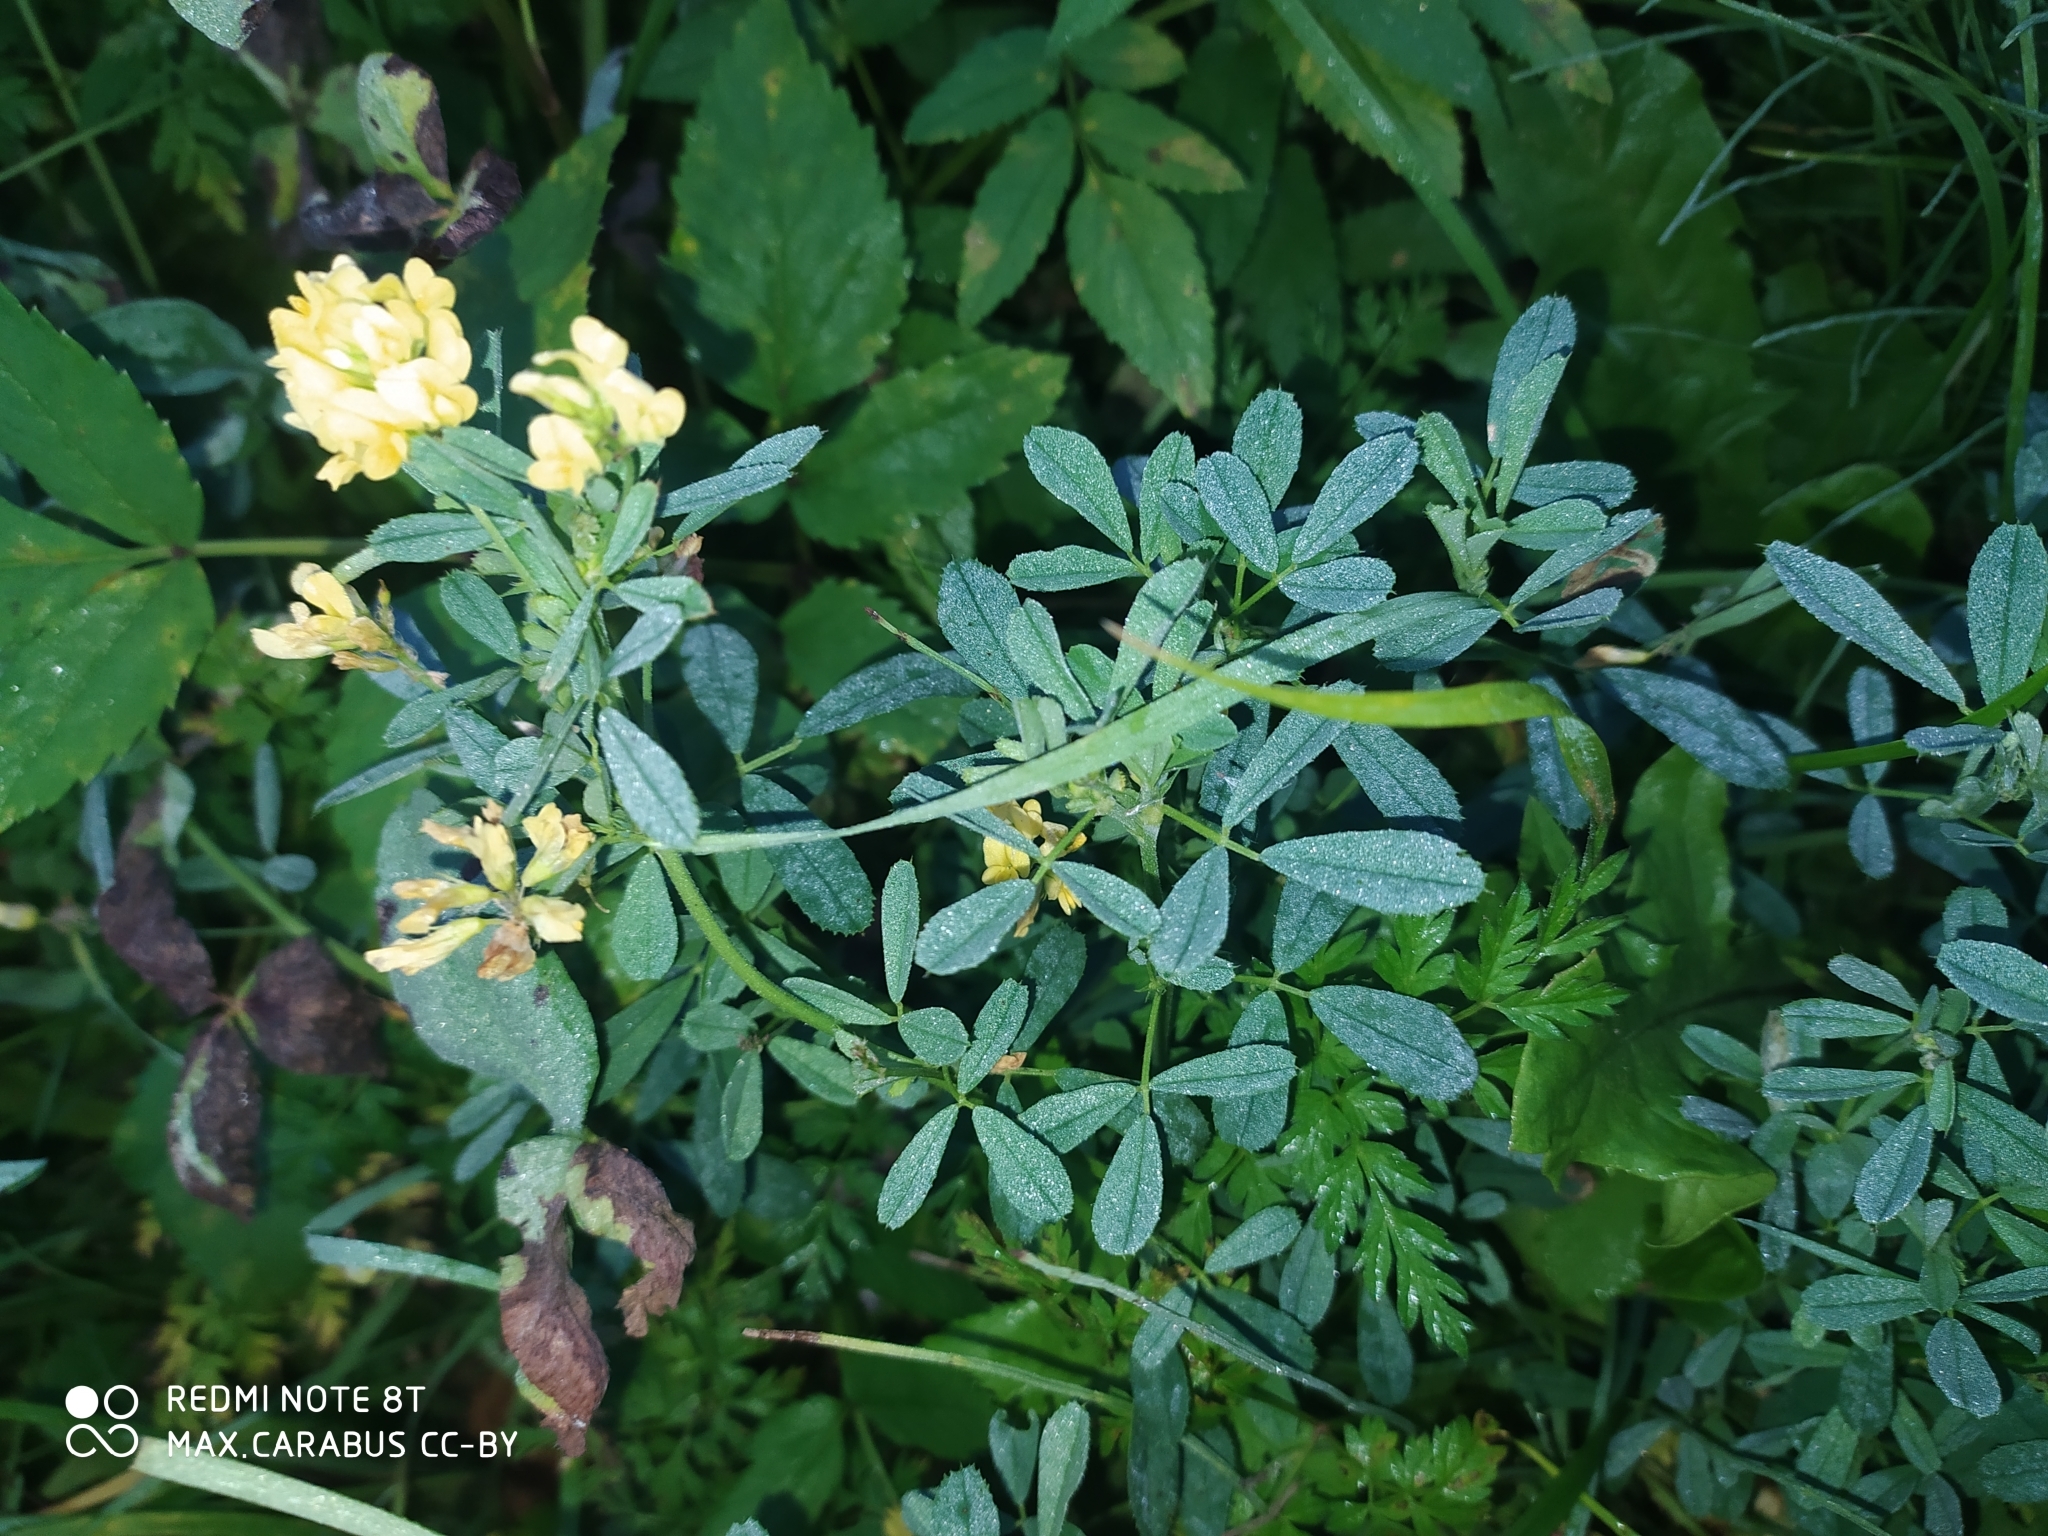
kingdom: Plantae
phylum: Tracheophyta
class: Magnoliopsida
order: Fabales
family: Fabaceae
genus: Medicago
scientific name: Medicago falcata
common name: Sickle medick
